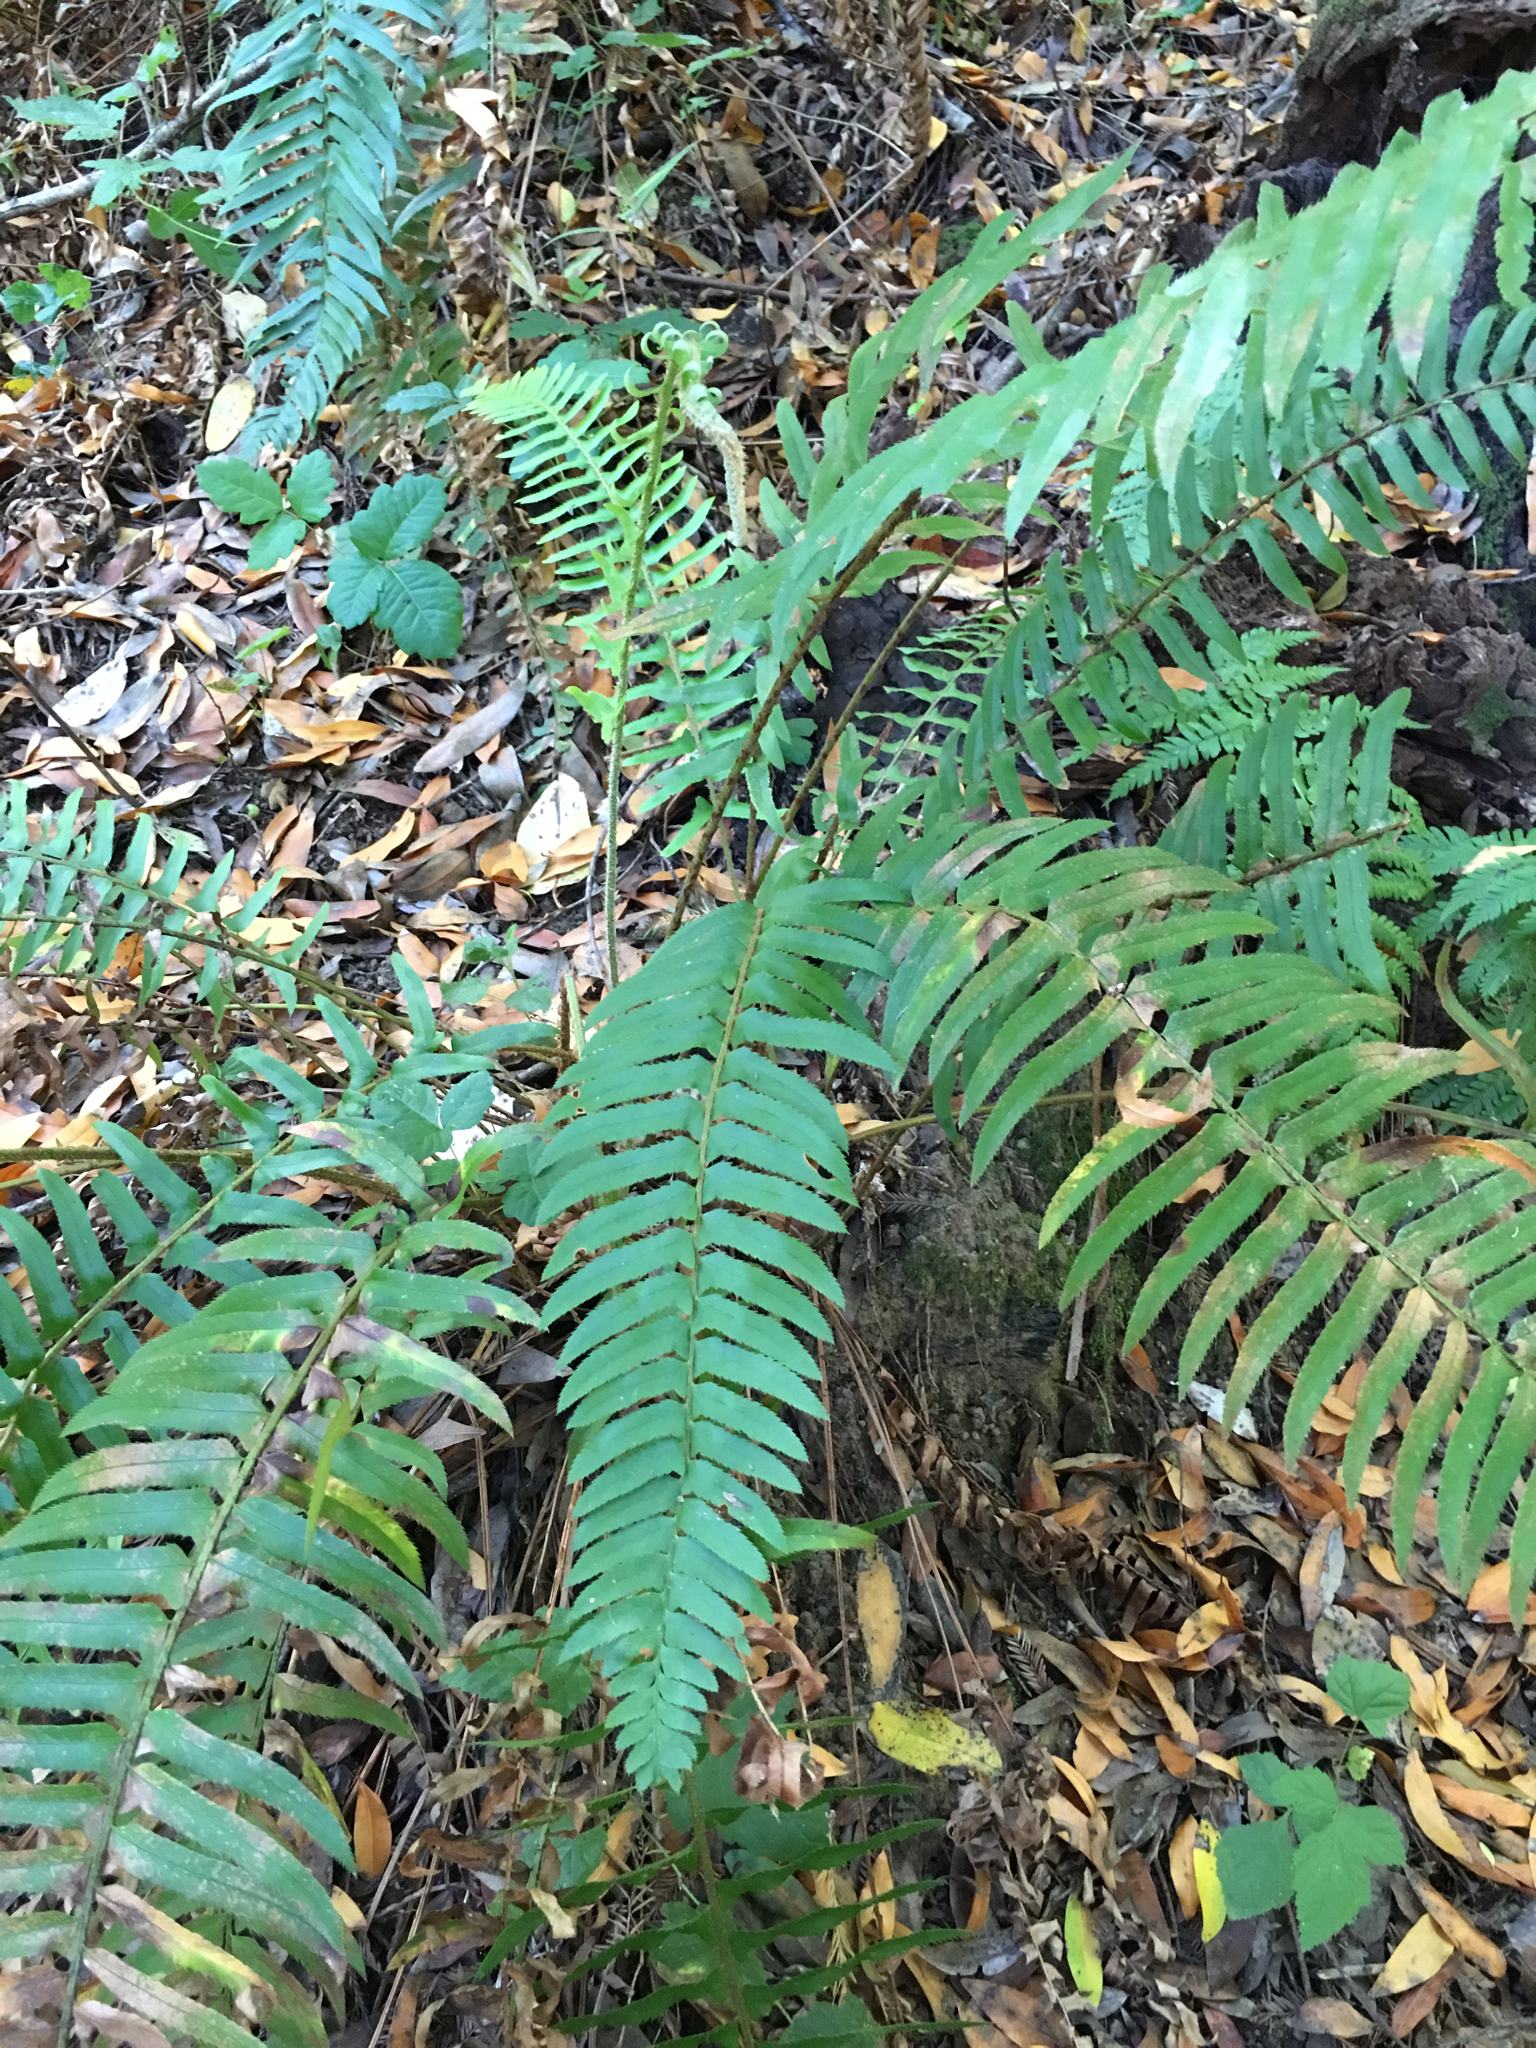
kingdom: Plantae
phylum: Tracheophyta
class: Polypodiopsida
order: Polypodiales
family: Dryopteridaceae
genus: Polystichum
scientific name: Polystichum munitum
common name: Western sword-fern
